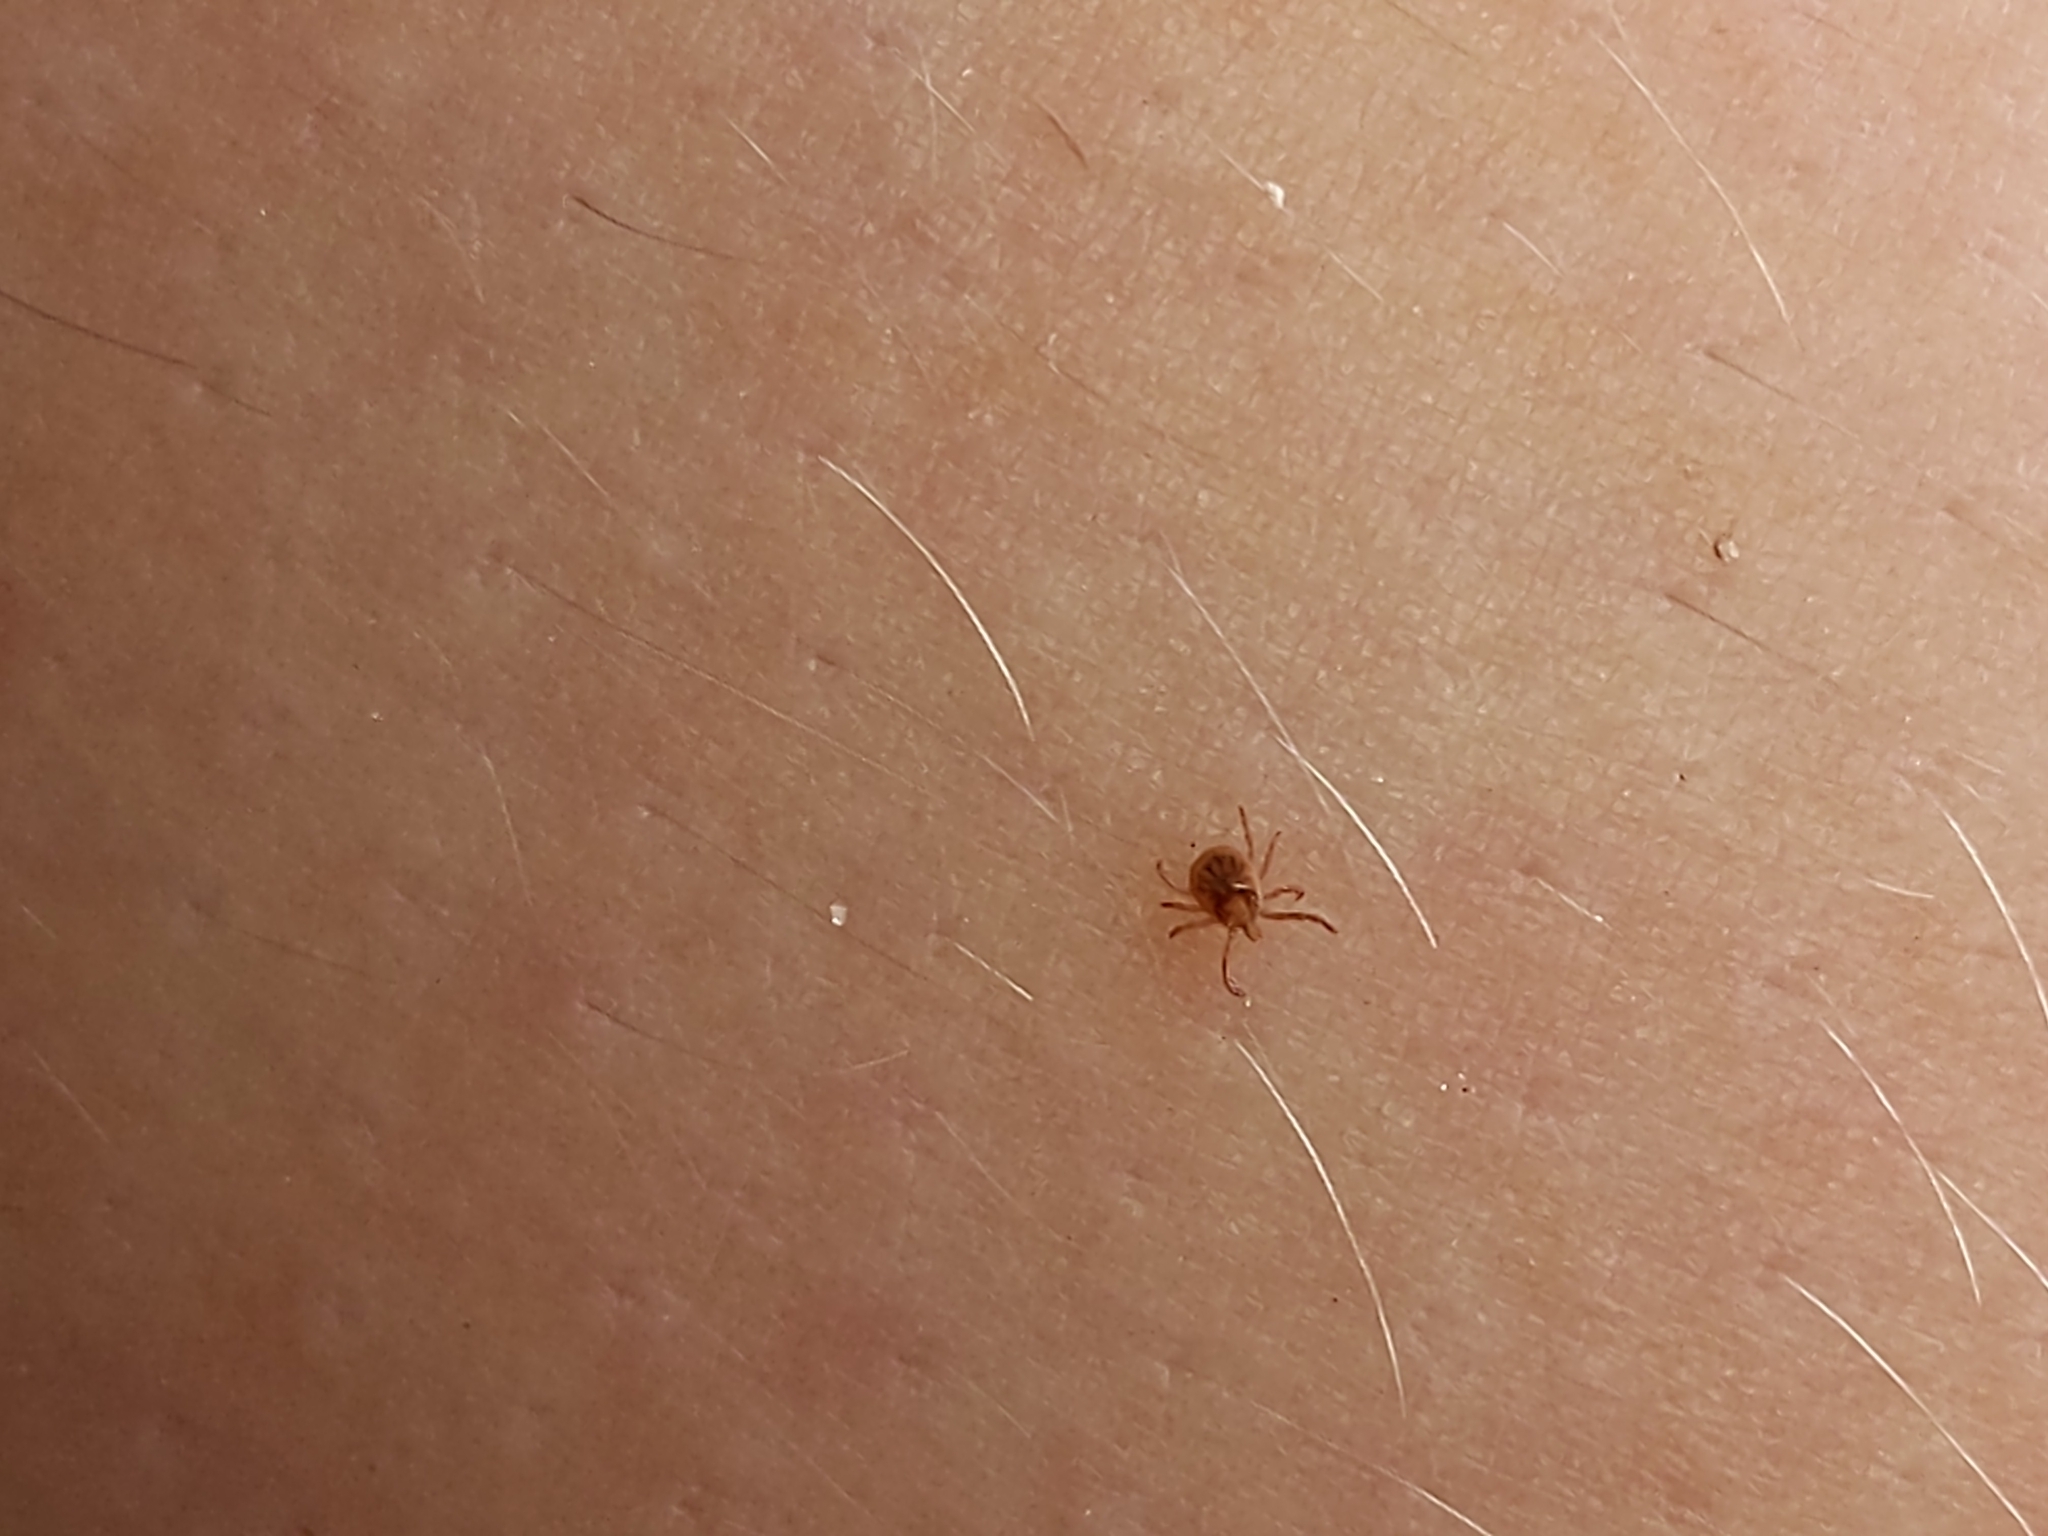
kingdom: Animalia
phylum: Arthropoda
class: Arachnida
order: Ixodida
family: Ixodidae
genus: Amblyomma
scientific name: Amblyomma americanum
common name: Lone star tick
